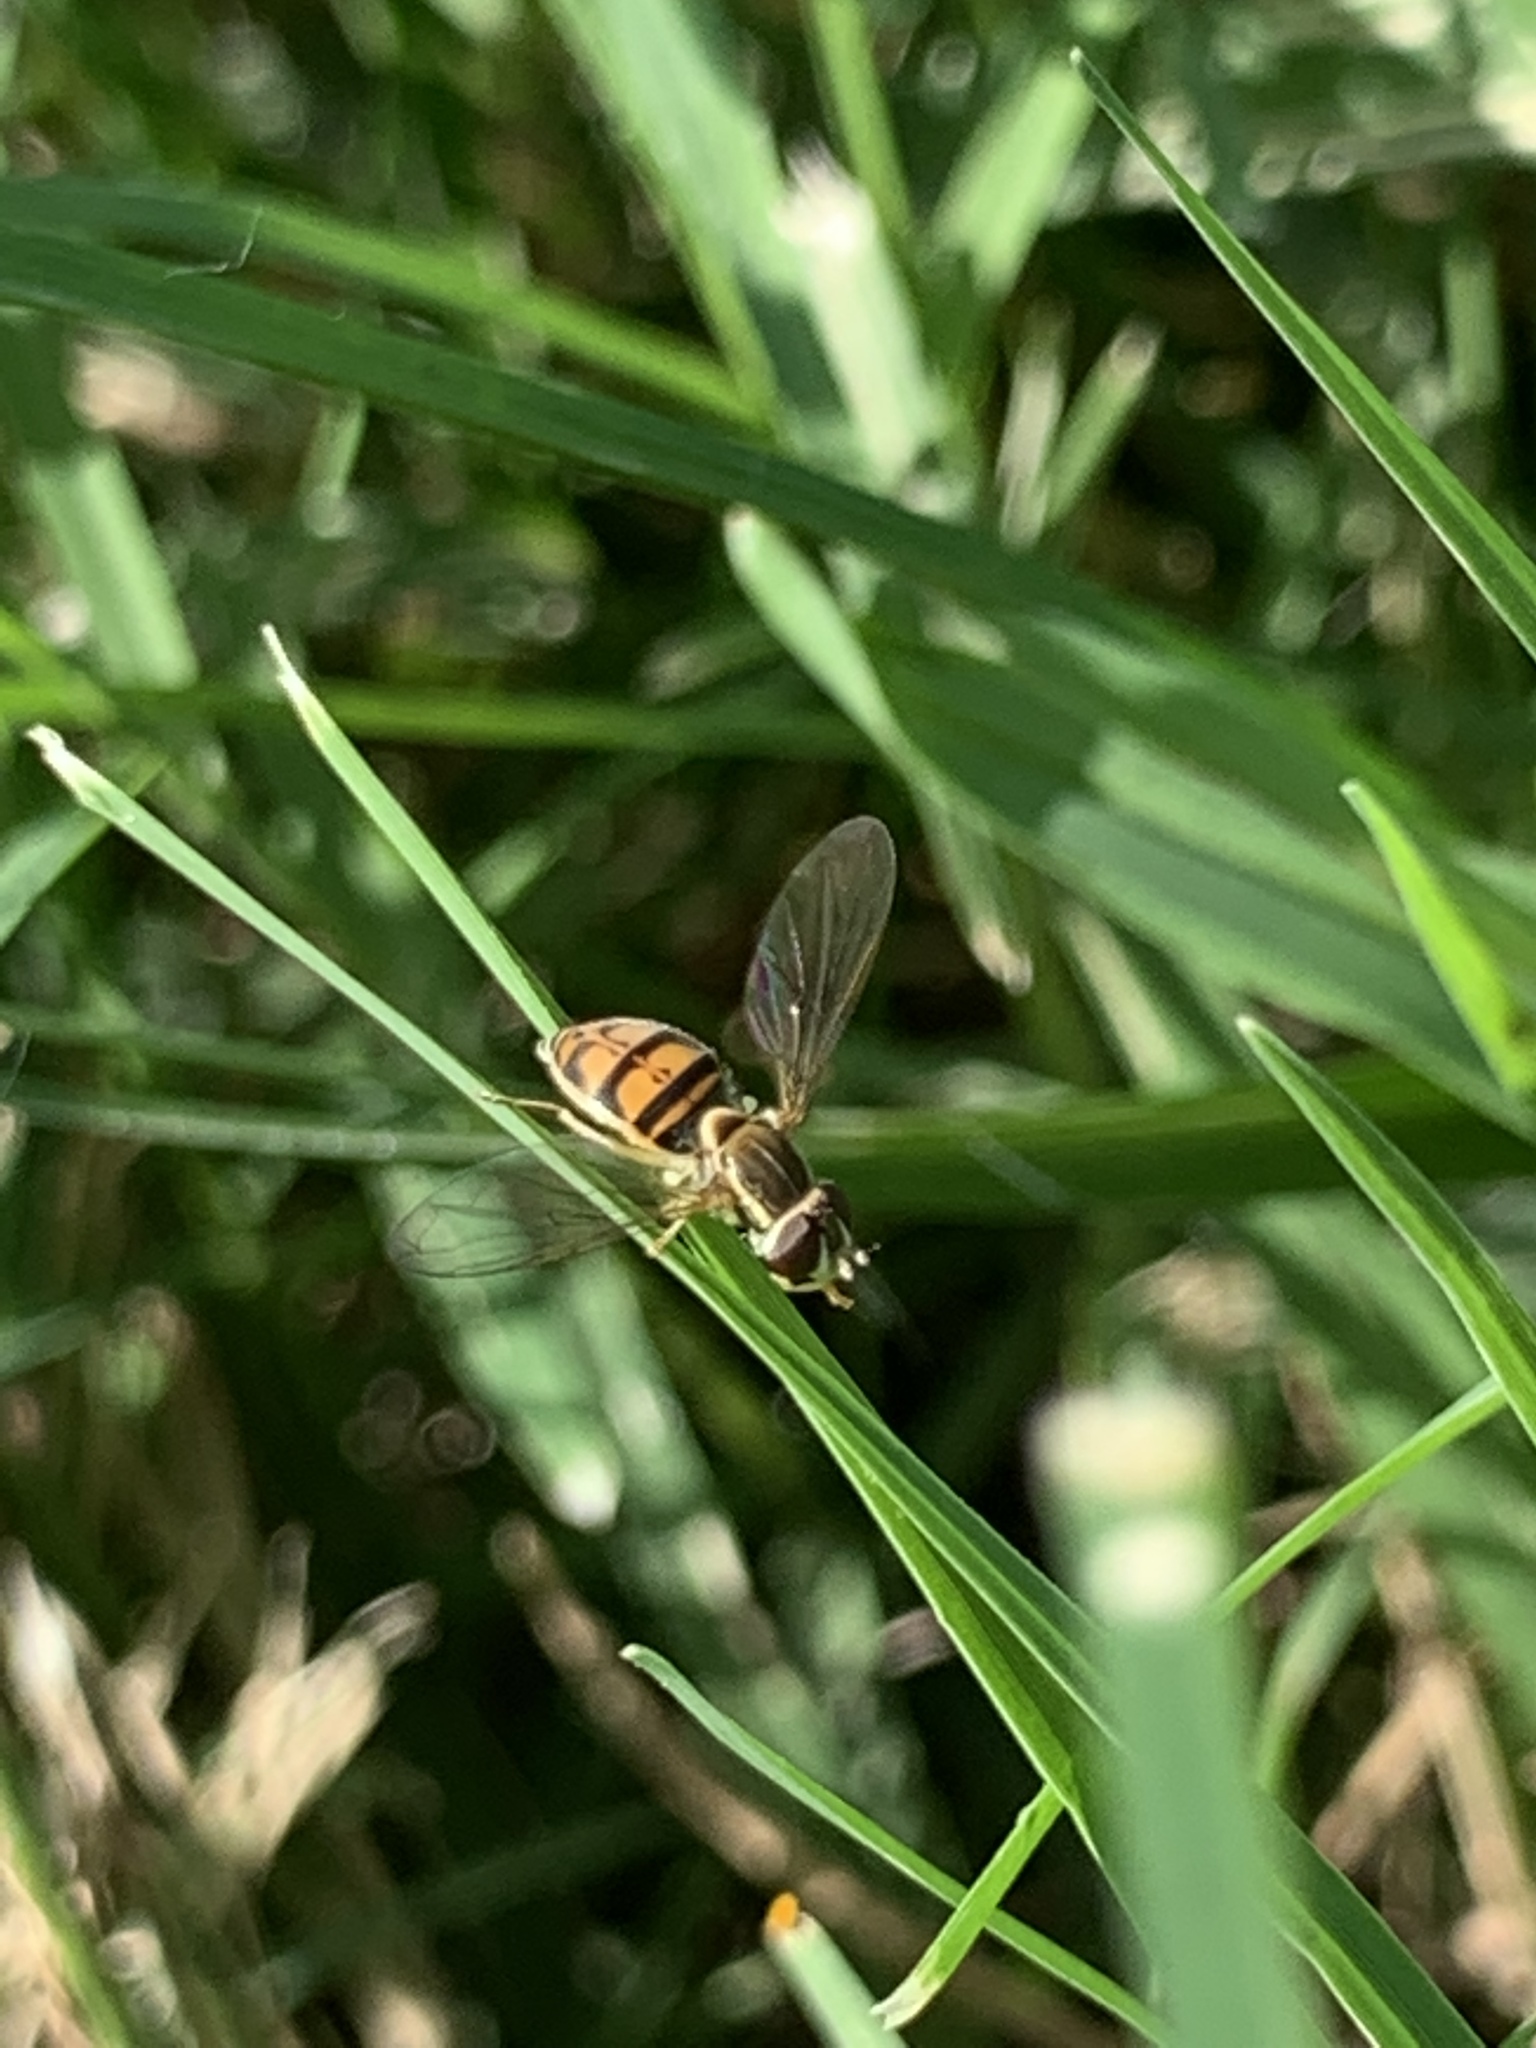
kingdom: Animalia
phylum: Arthropoda
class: Insecta
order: Diptera
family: Syrphidae
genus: Toxomerus
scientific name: Toxomerus marginatus
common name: Syrphid fly
